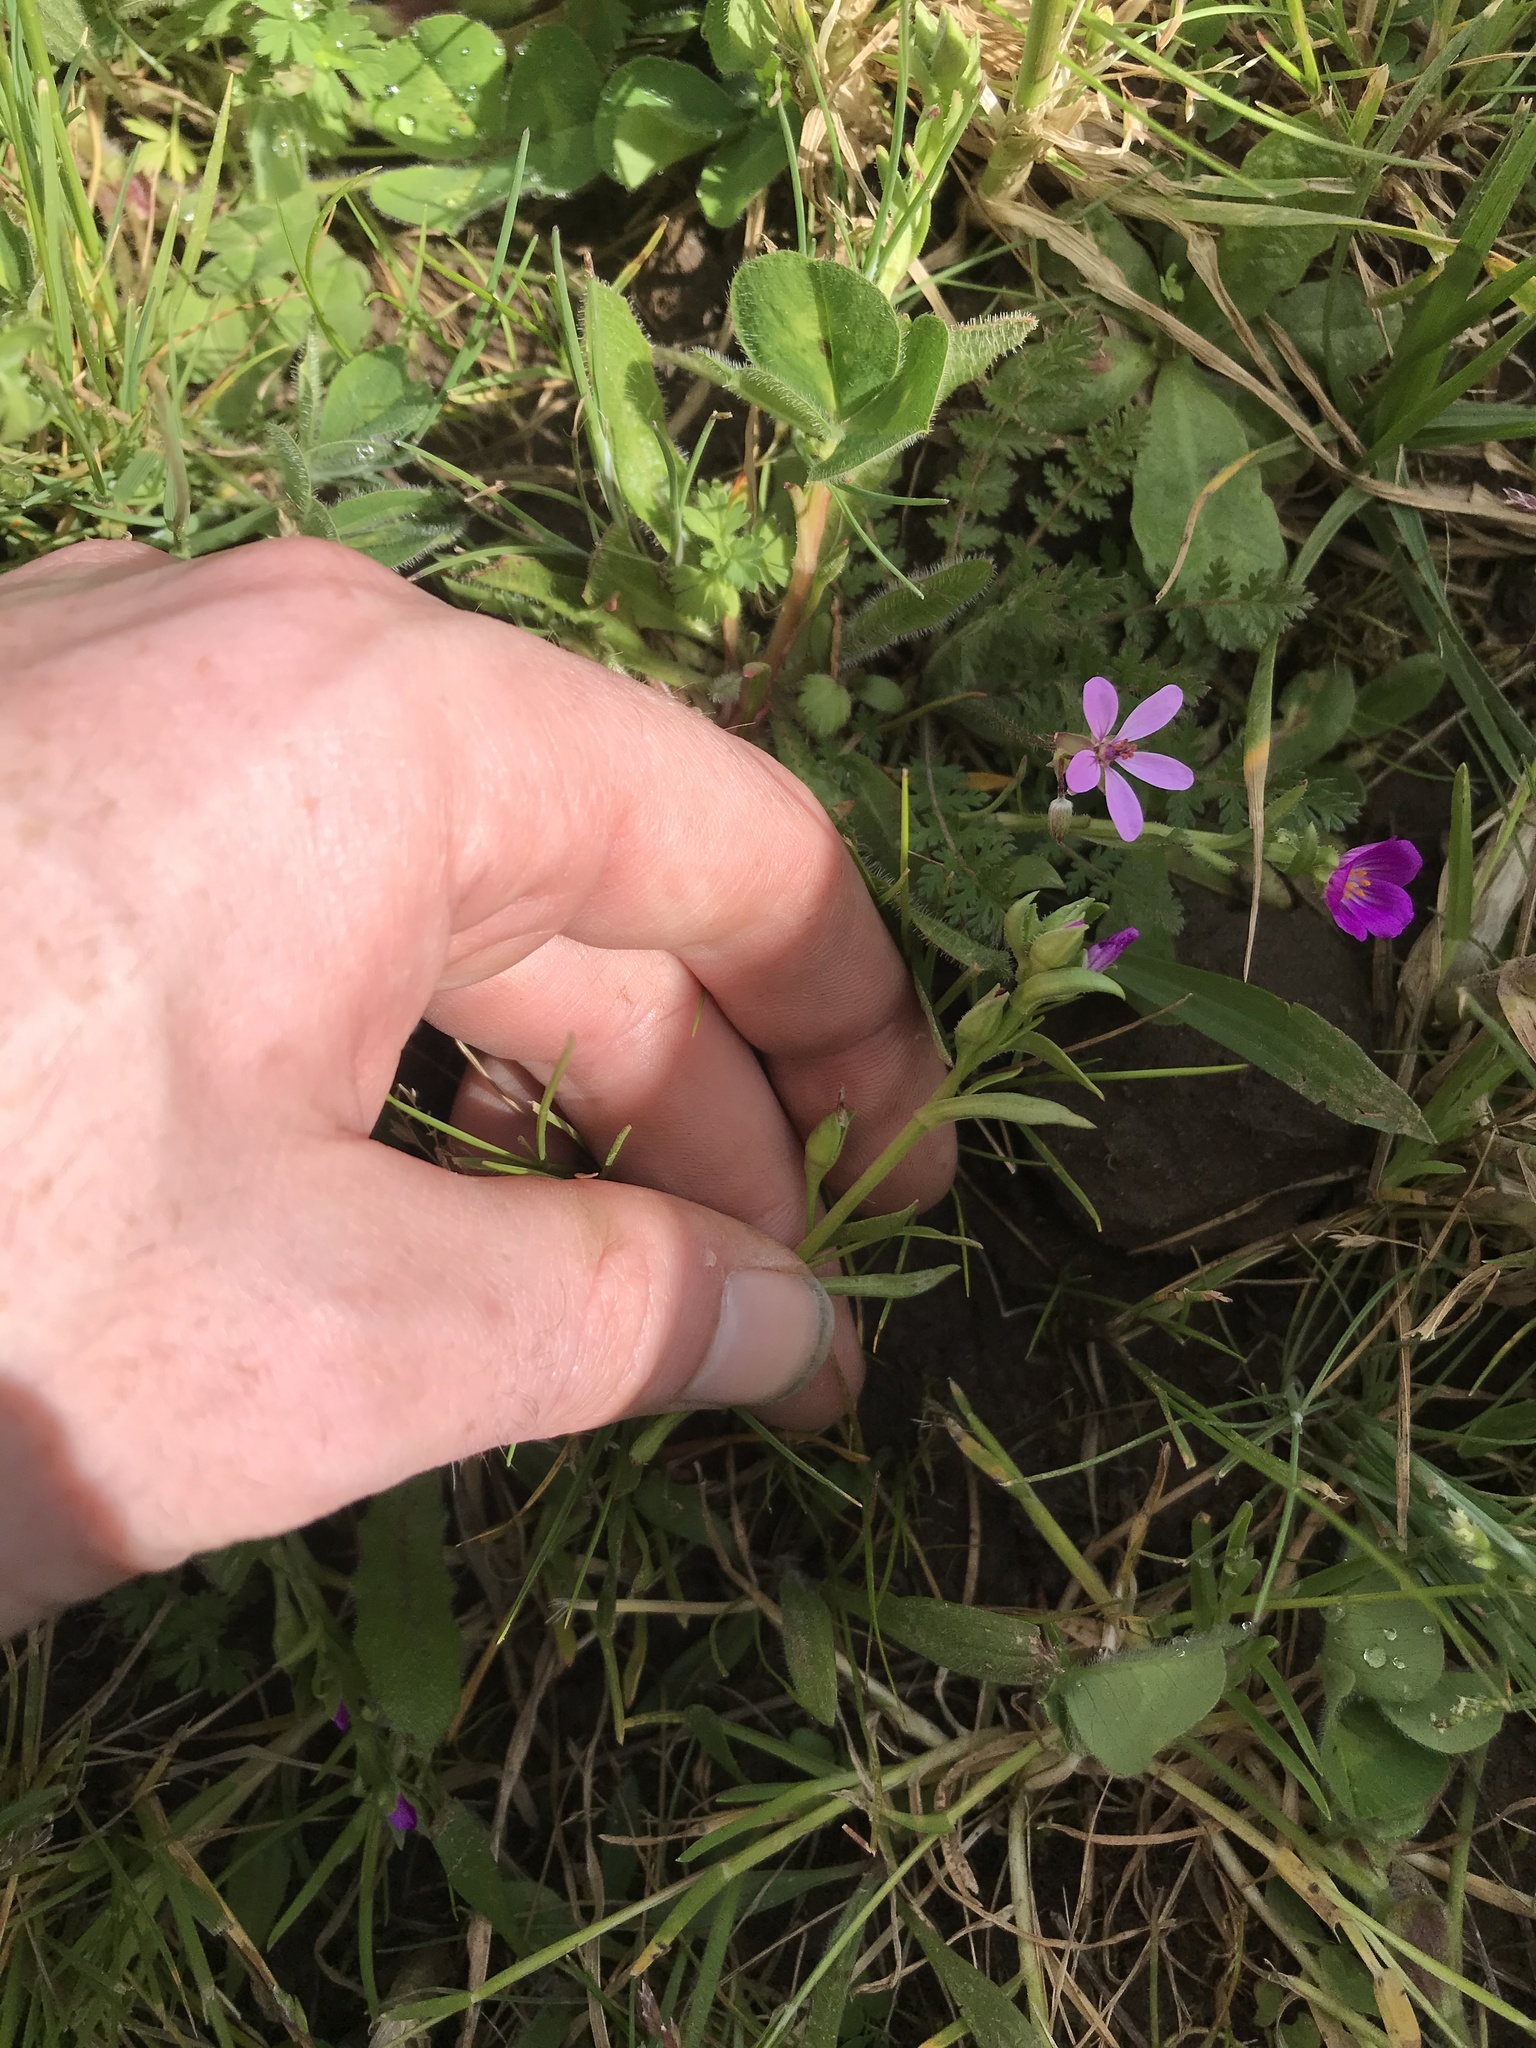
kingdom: Plantae
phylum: Tracheophyta
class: Magnoliopsida
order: Caryophyllales
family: Montiaceae
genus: Calandrinia
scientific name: Calandrinia menziesii
